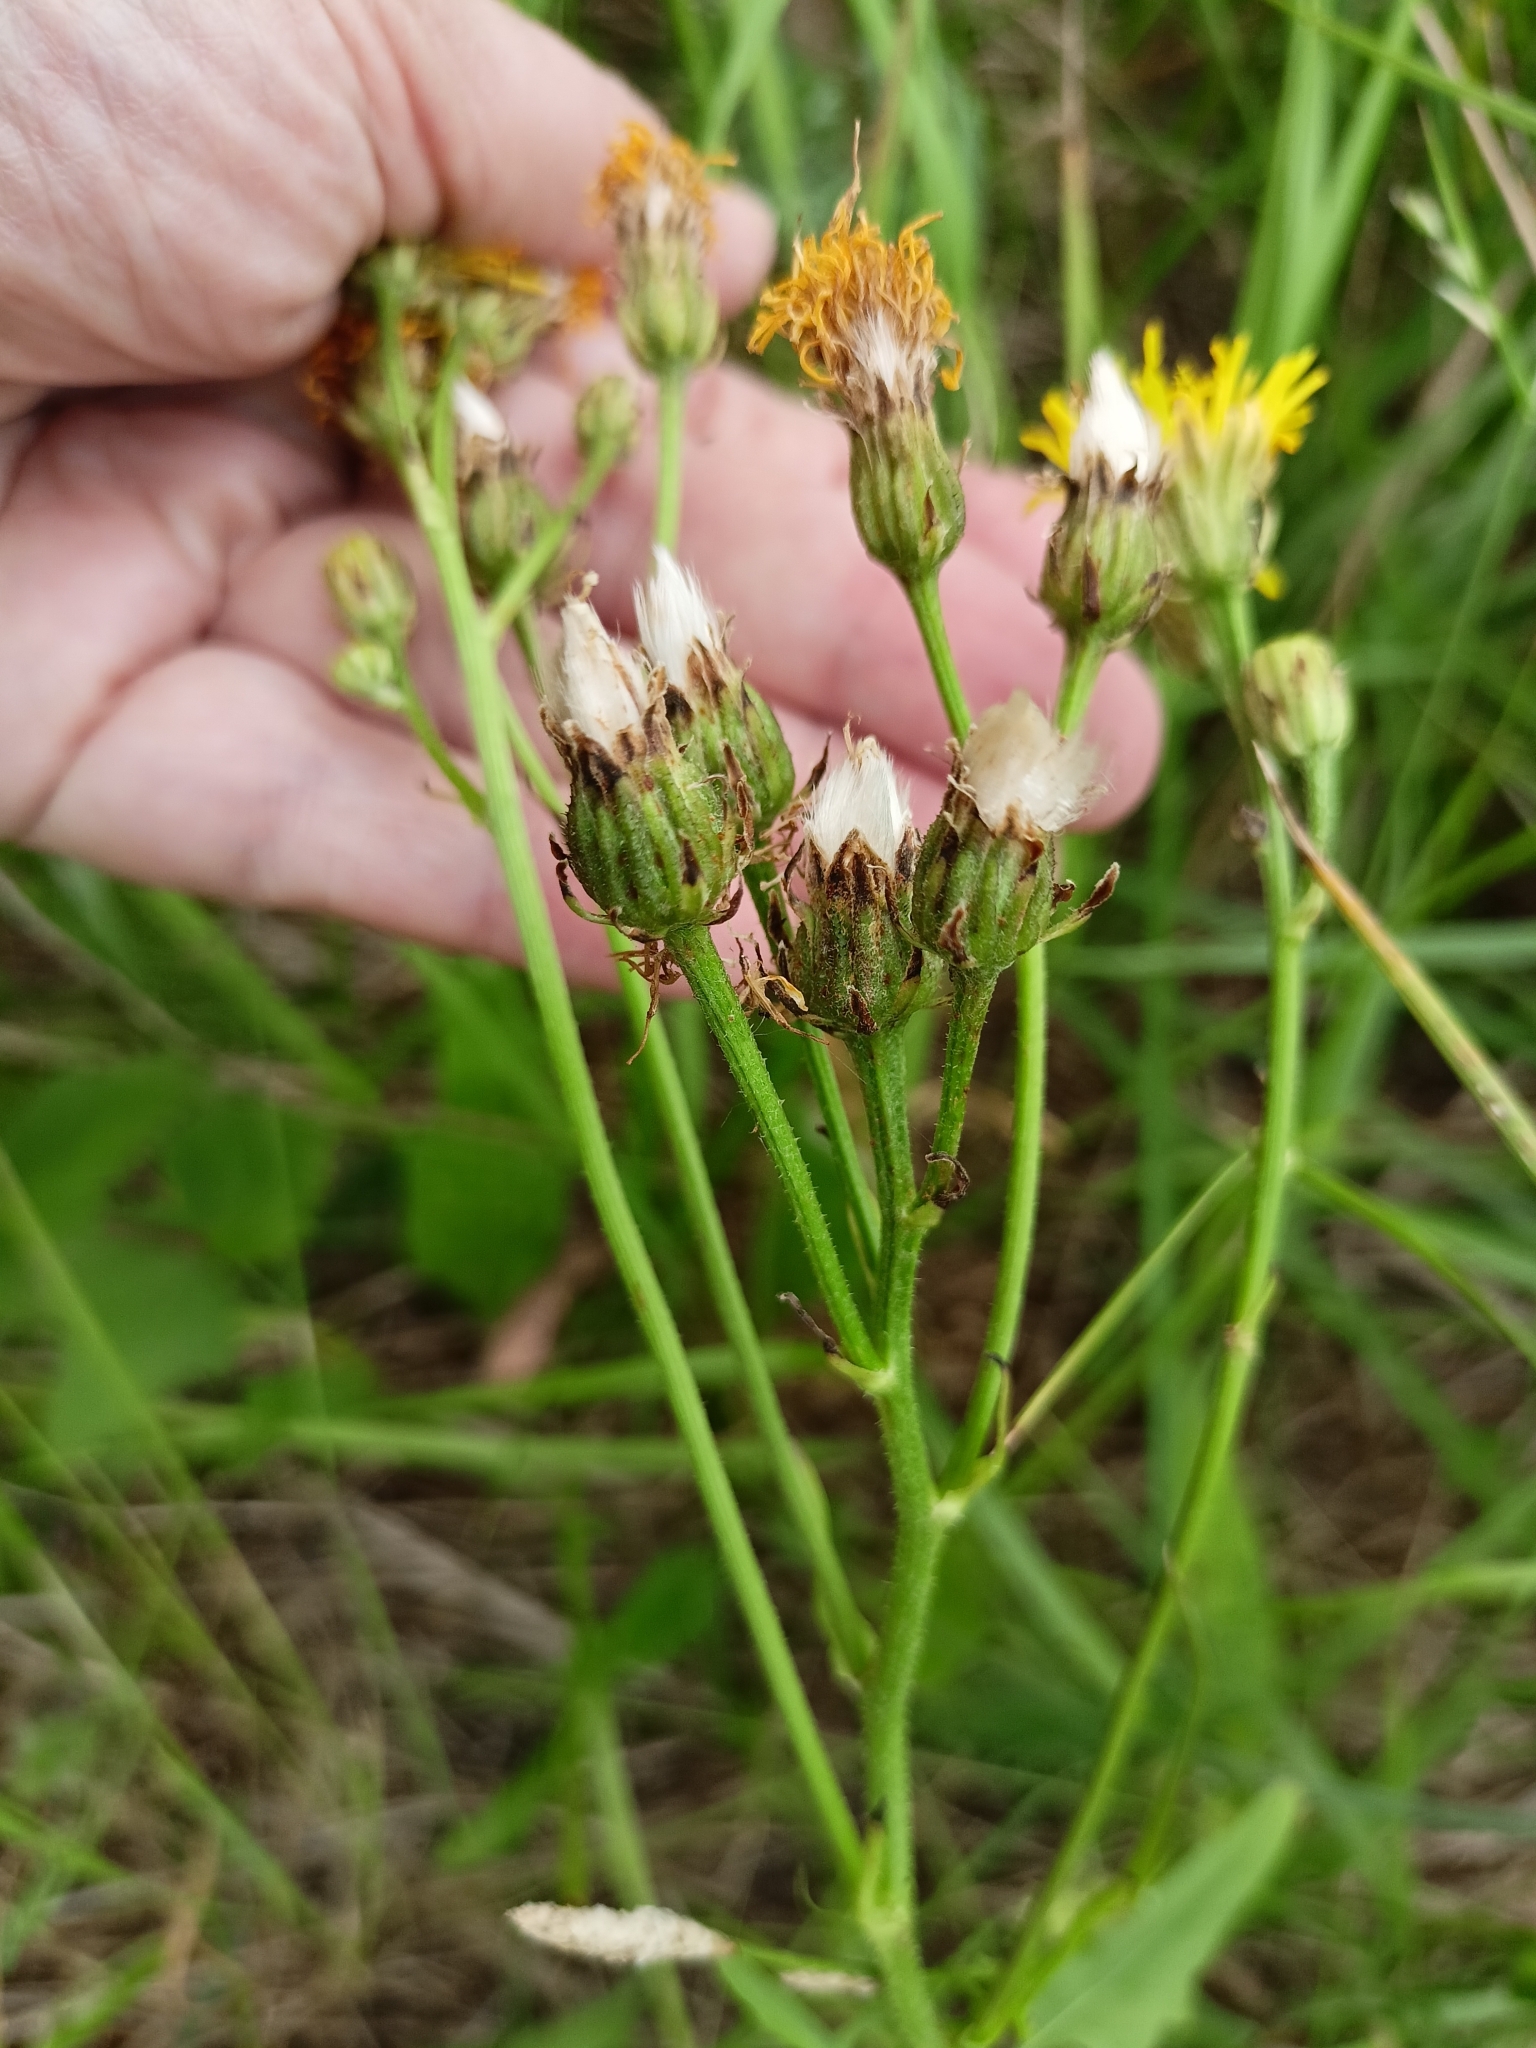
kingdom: Plantae
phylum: Tracheophyta
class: Magnoliopsida
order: Asterales
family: Asteraceae
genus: Crepis
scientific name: Crepis biennis
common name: Rough hawk's-beard
